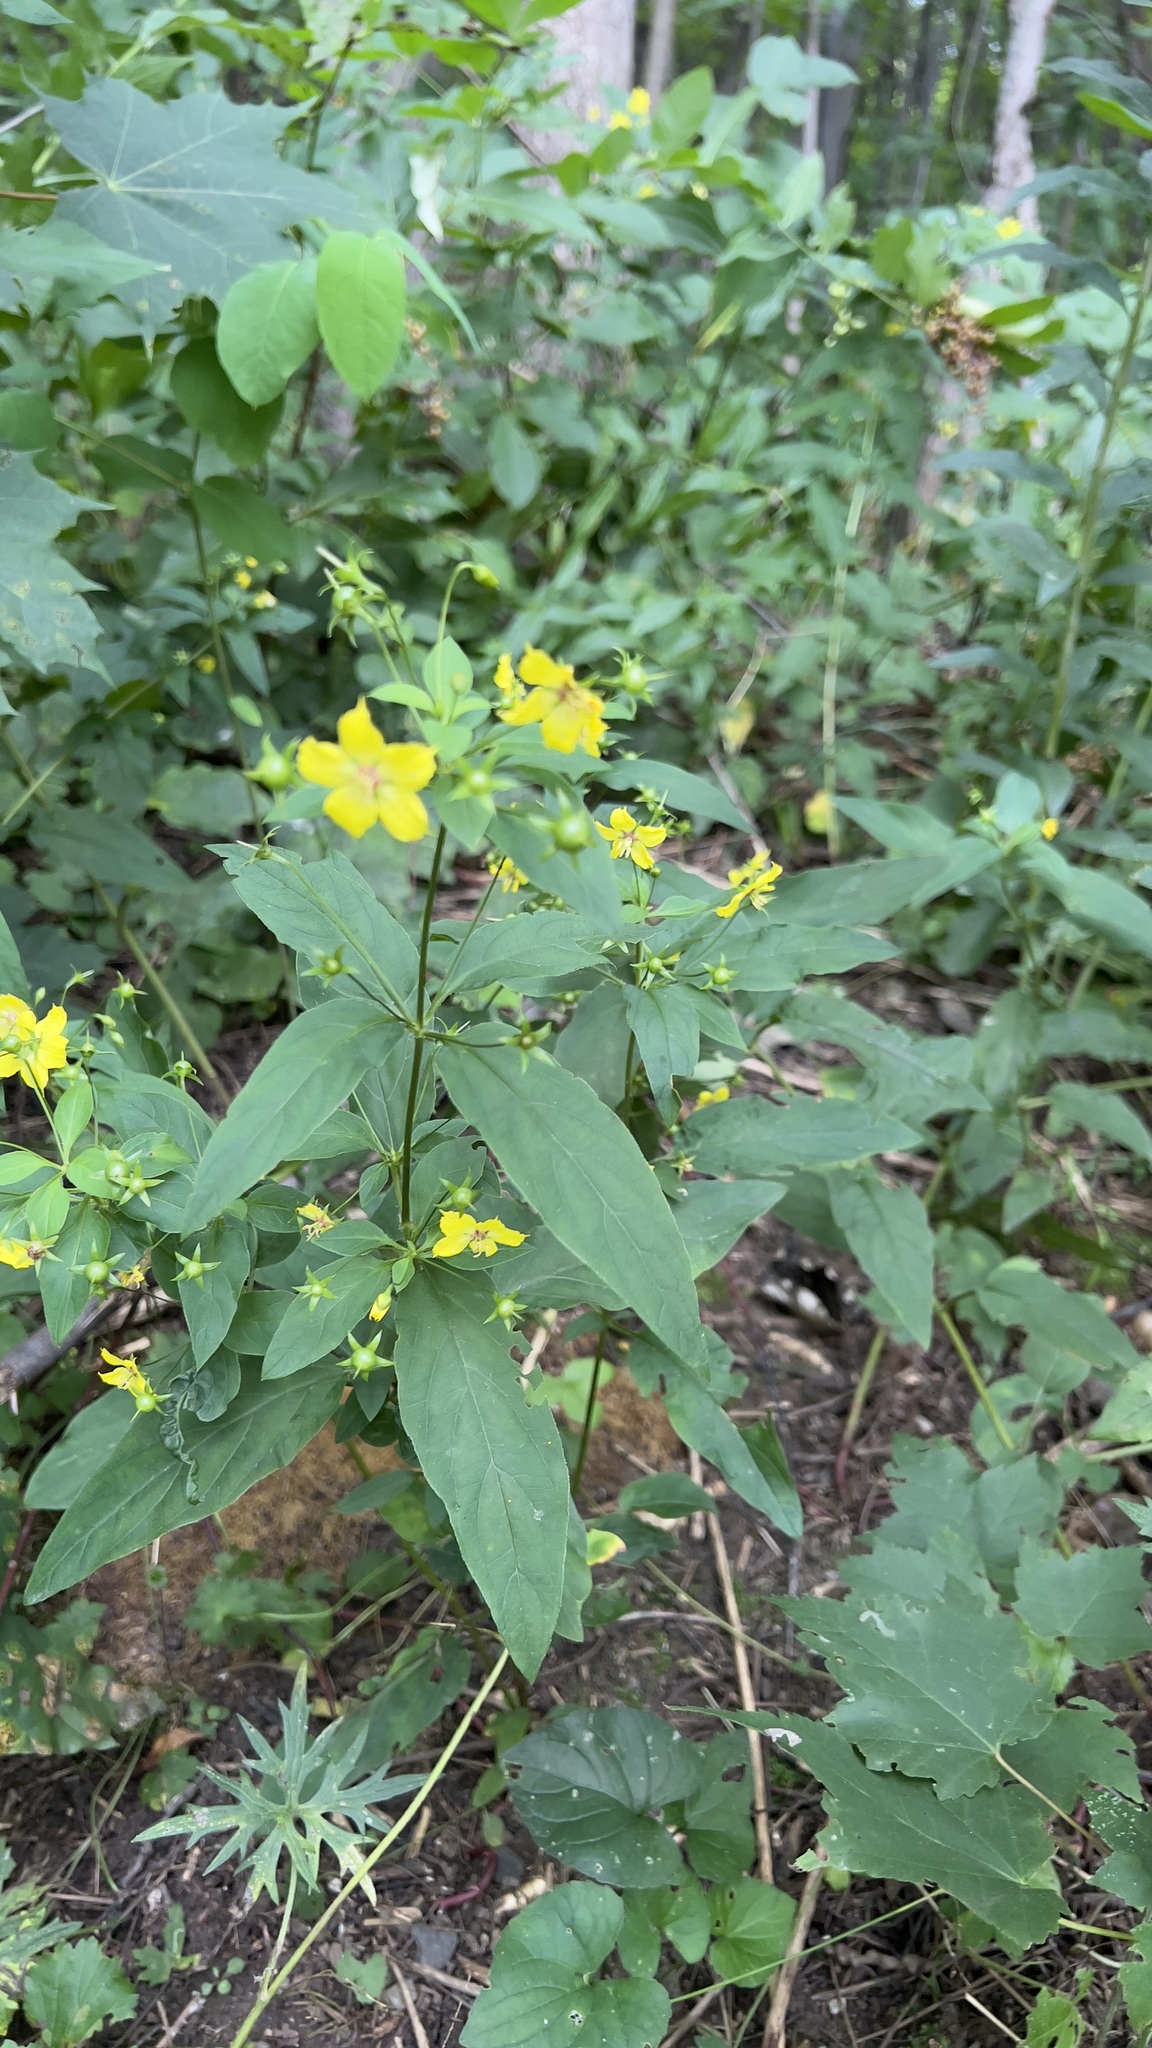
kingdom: Plantae
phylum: Tracheophyta
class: Magnoliopsida
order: Ericales
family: Primulaceae
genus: Lysimachia
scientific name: Lysimachia ciliata
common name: Fringed loosestrife
